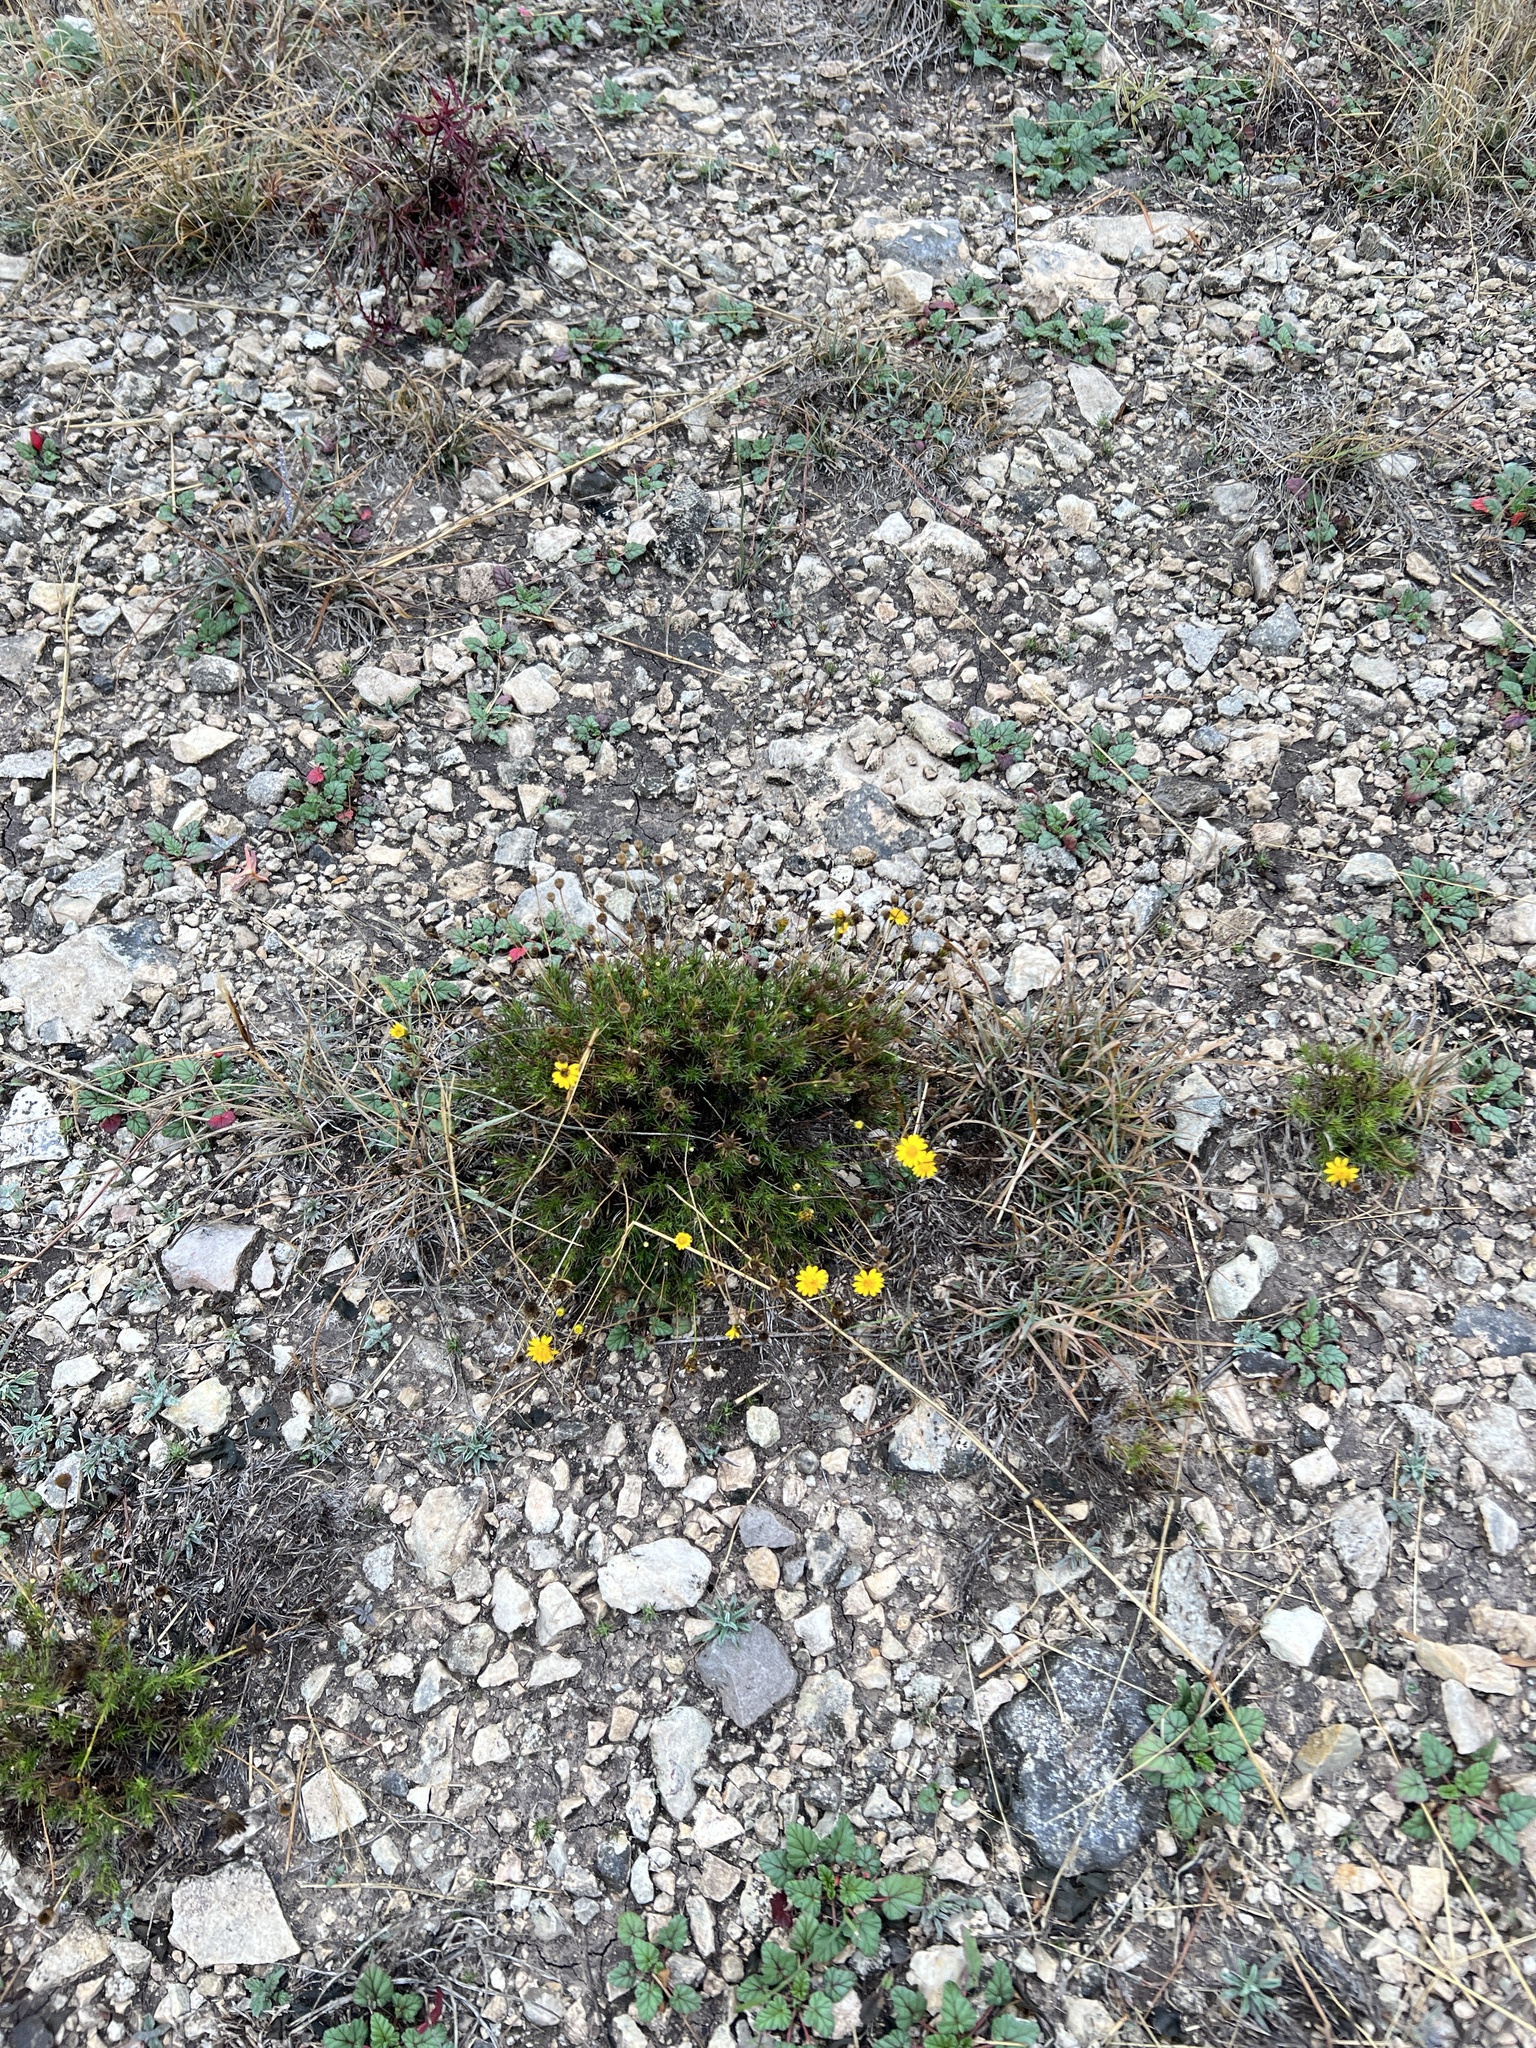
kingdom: Plantae
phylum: Tracheophyta
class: Magnoliopsida
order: Asterales
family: Asteraceae
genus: Thymophylla
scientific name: Thymophylla pentachaeta
